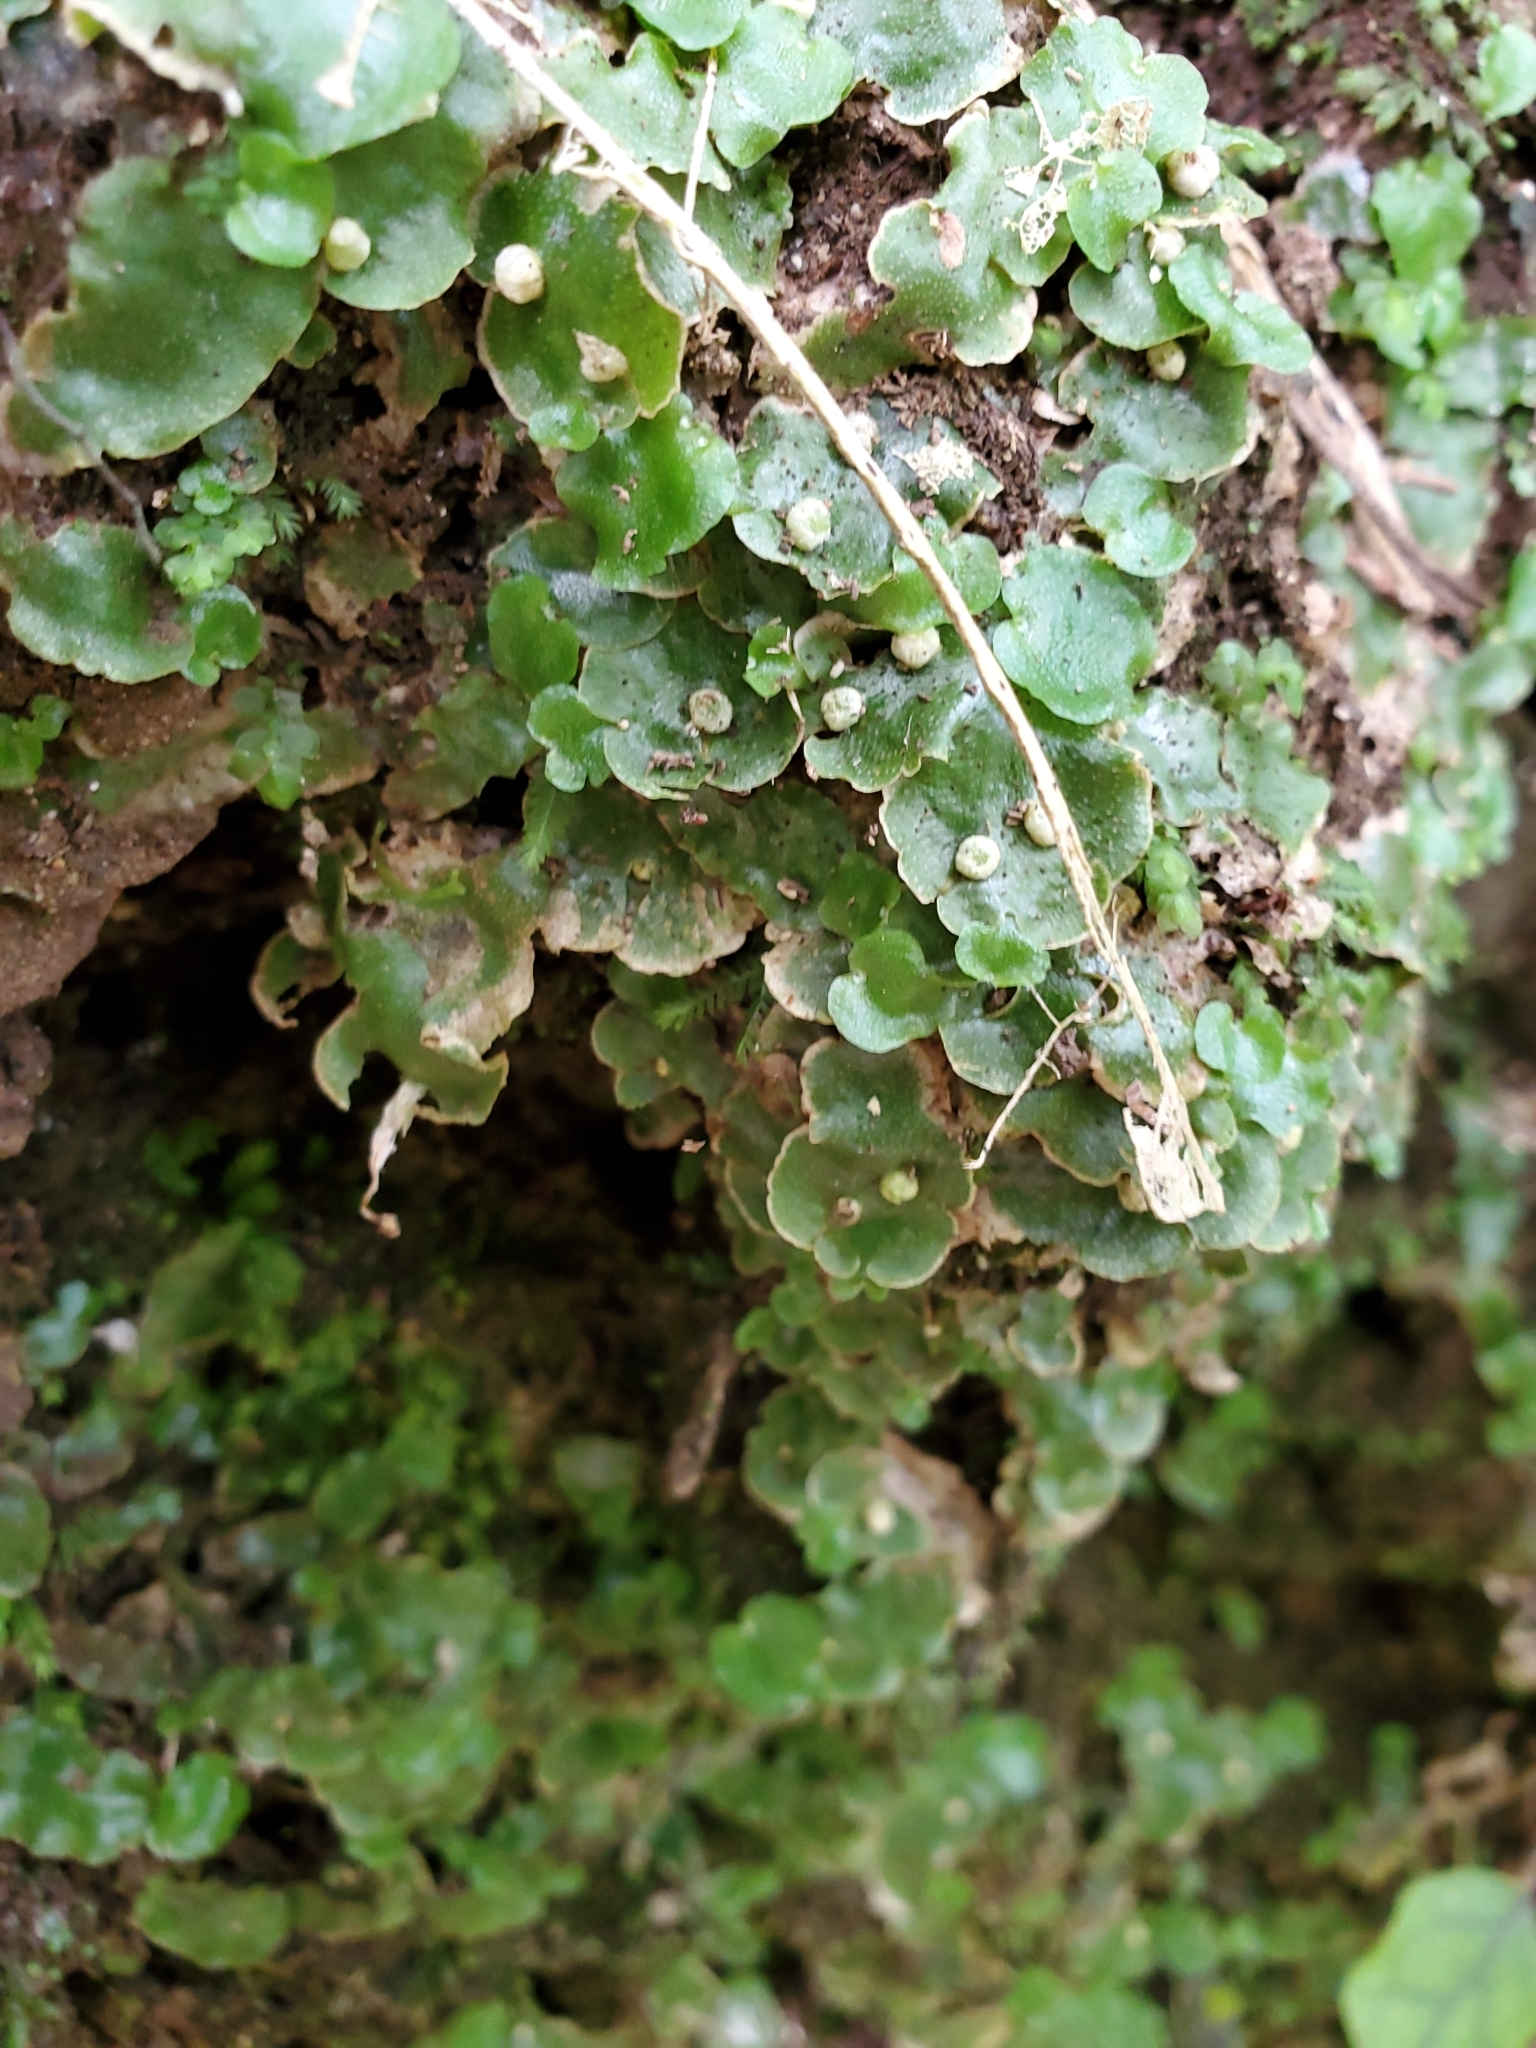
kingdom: Plantae
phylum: Marchantiophyta
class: Marchantiopsida
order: Lunulariales
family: Lunulariaceae
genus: Lunularia
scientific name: Lunularia cruciata
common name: Crescent-cup liverwort
